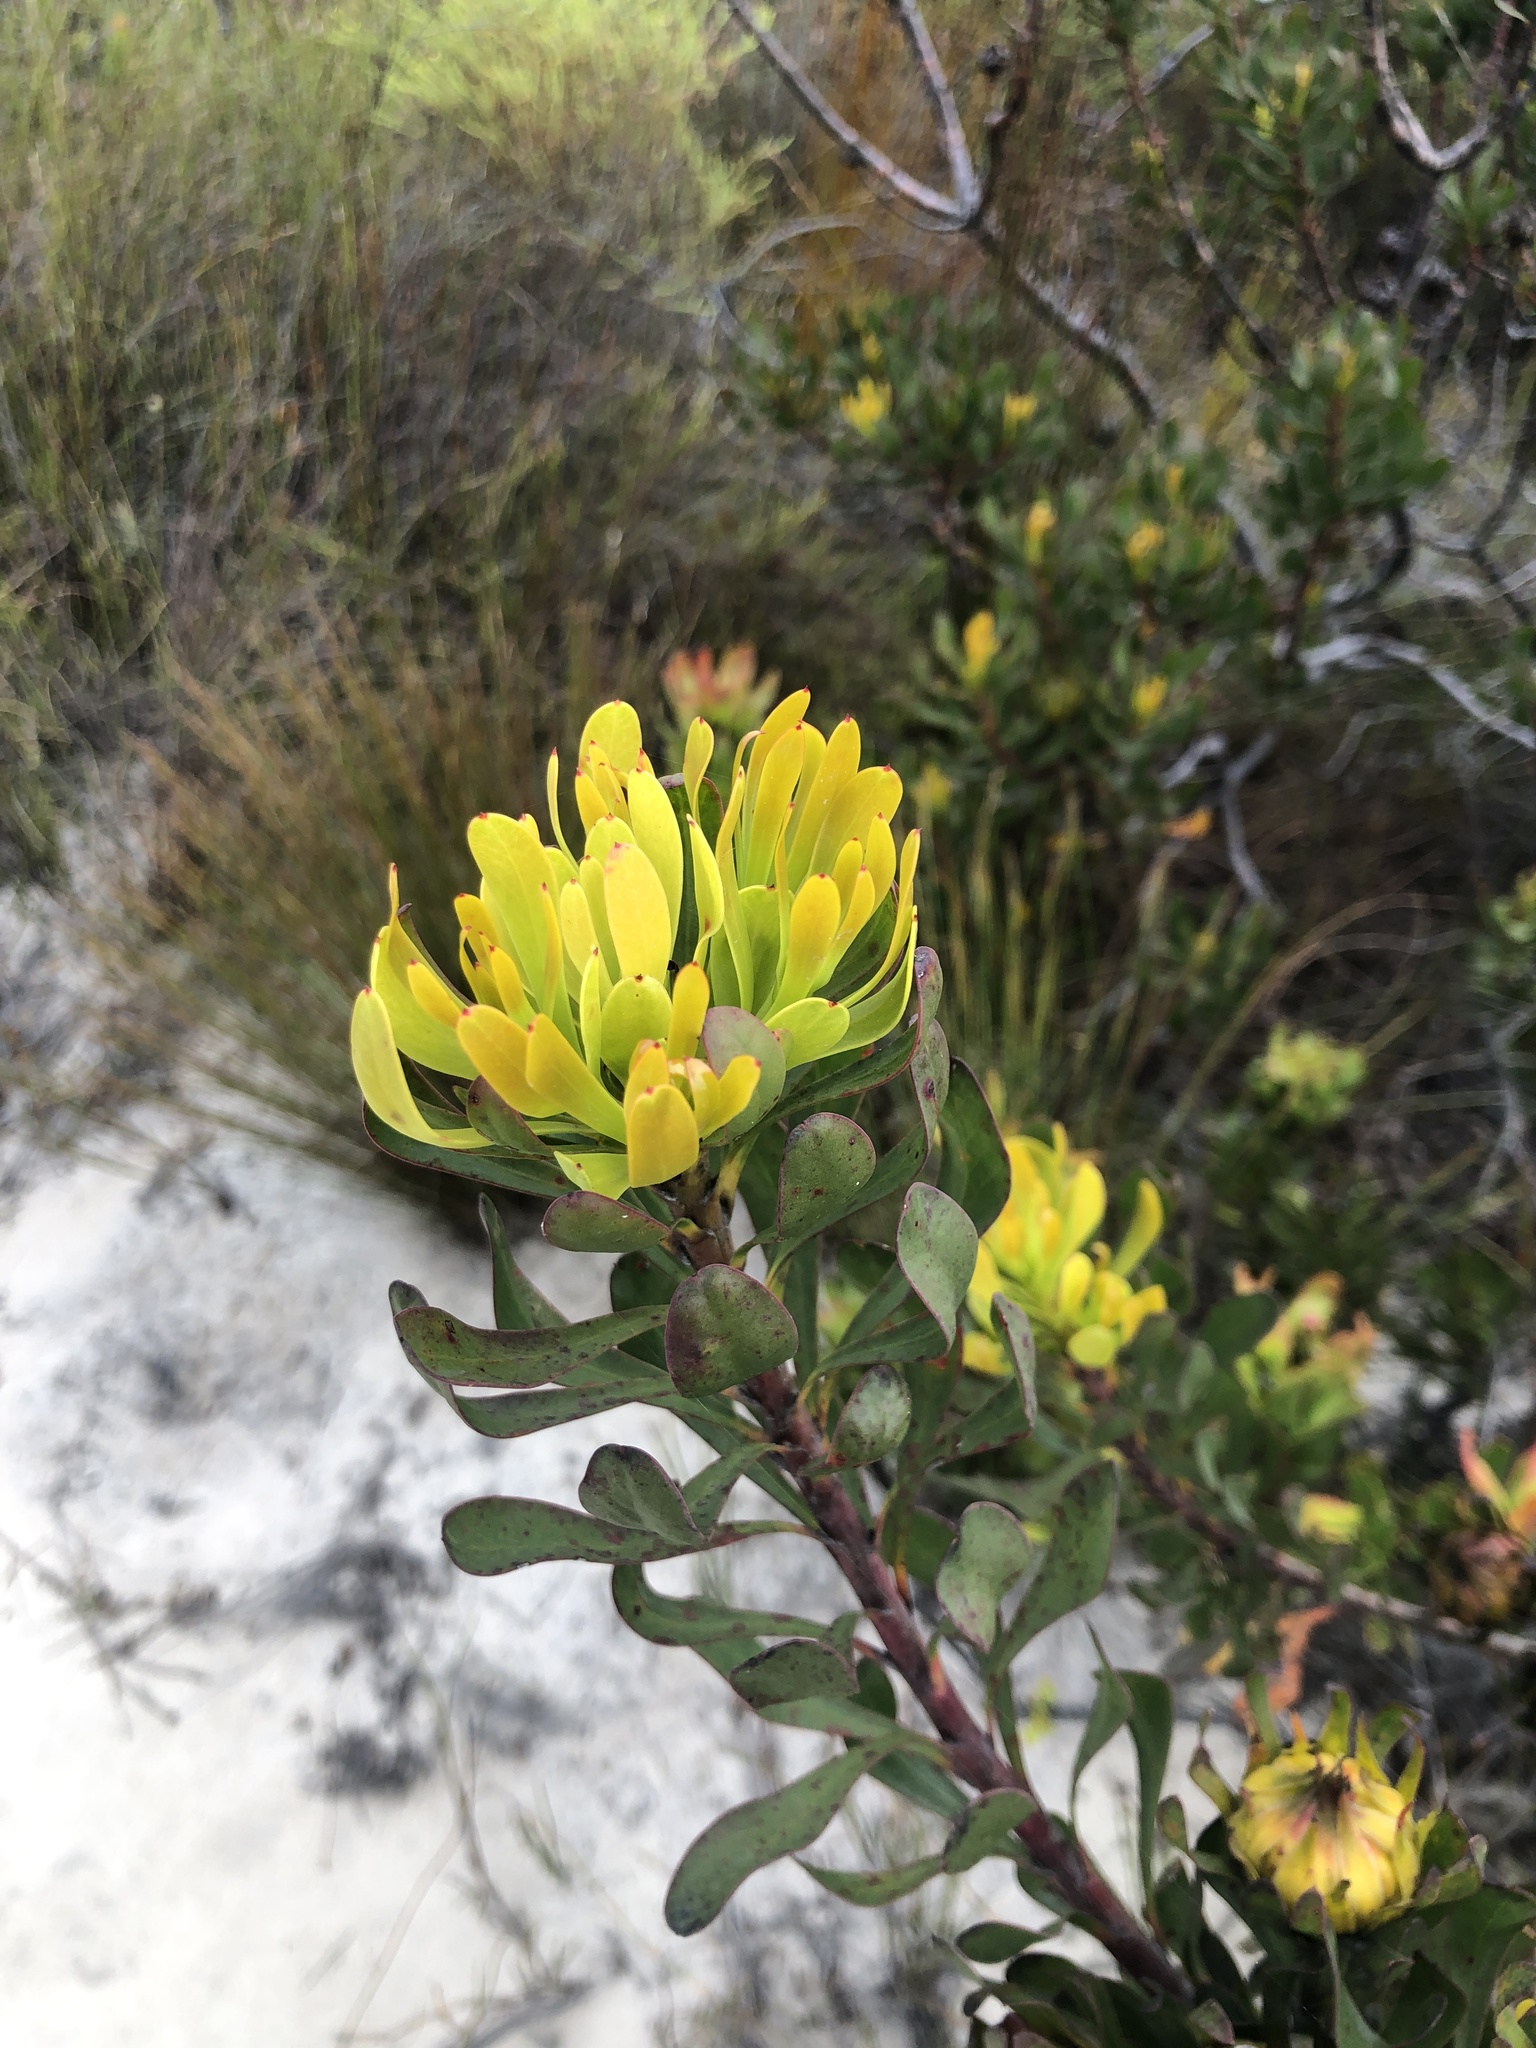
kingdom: Plantae
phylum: Tracheophyta
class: Magnoliopsida
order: Proteales
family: Proteaceae
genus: Aulax
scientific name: Aulax umbellata
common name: Broad-leaf featherbush
